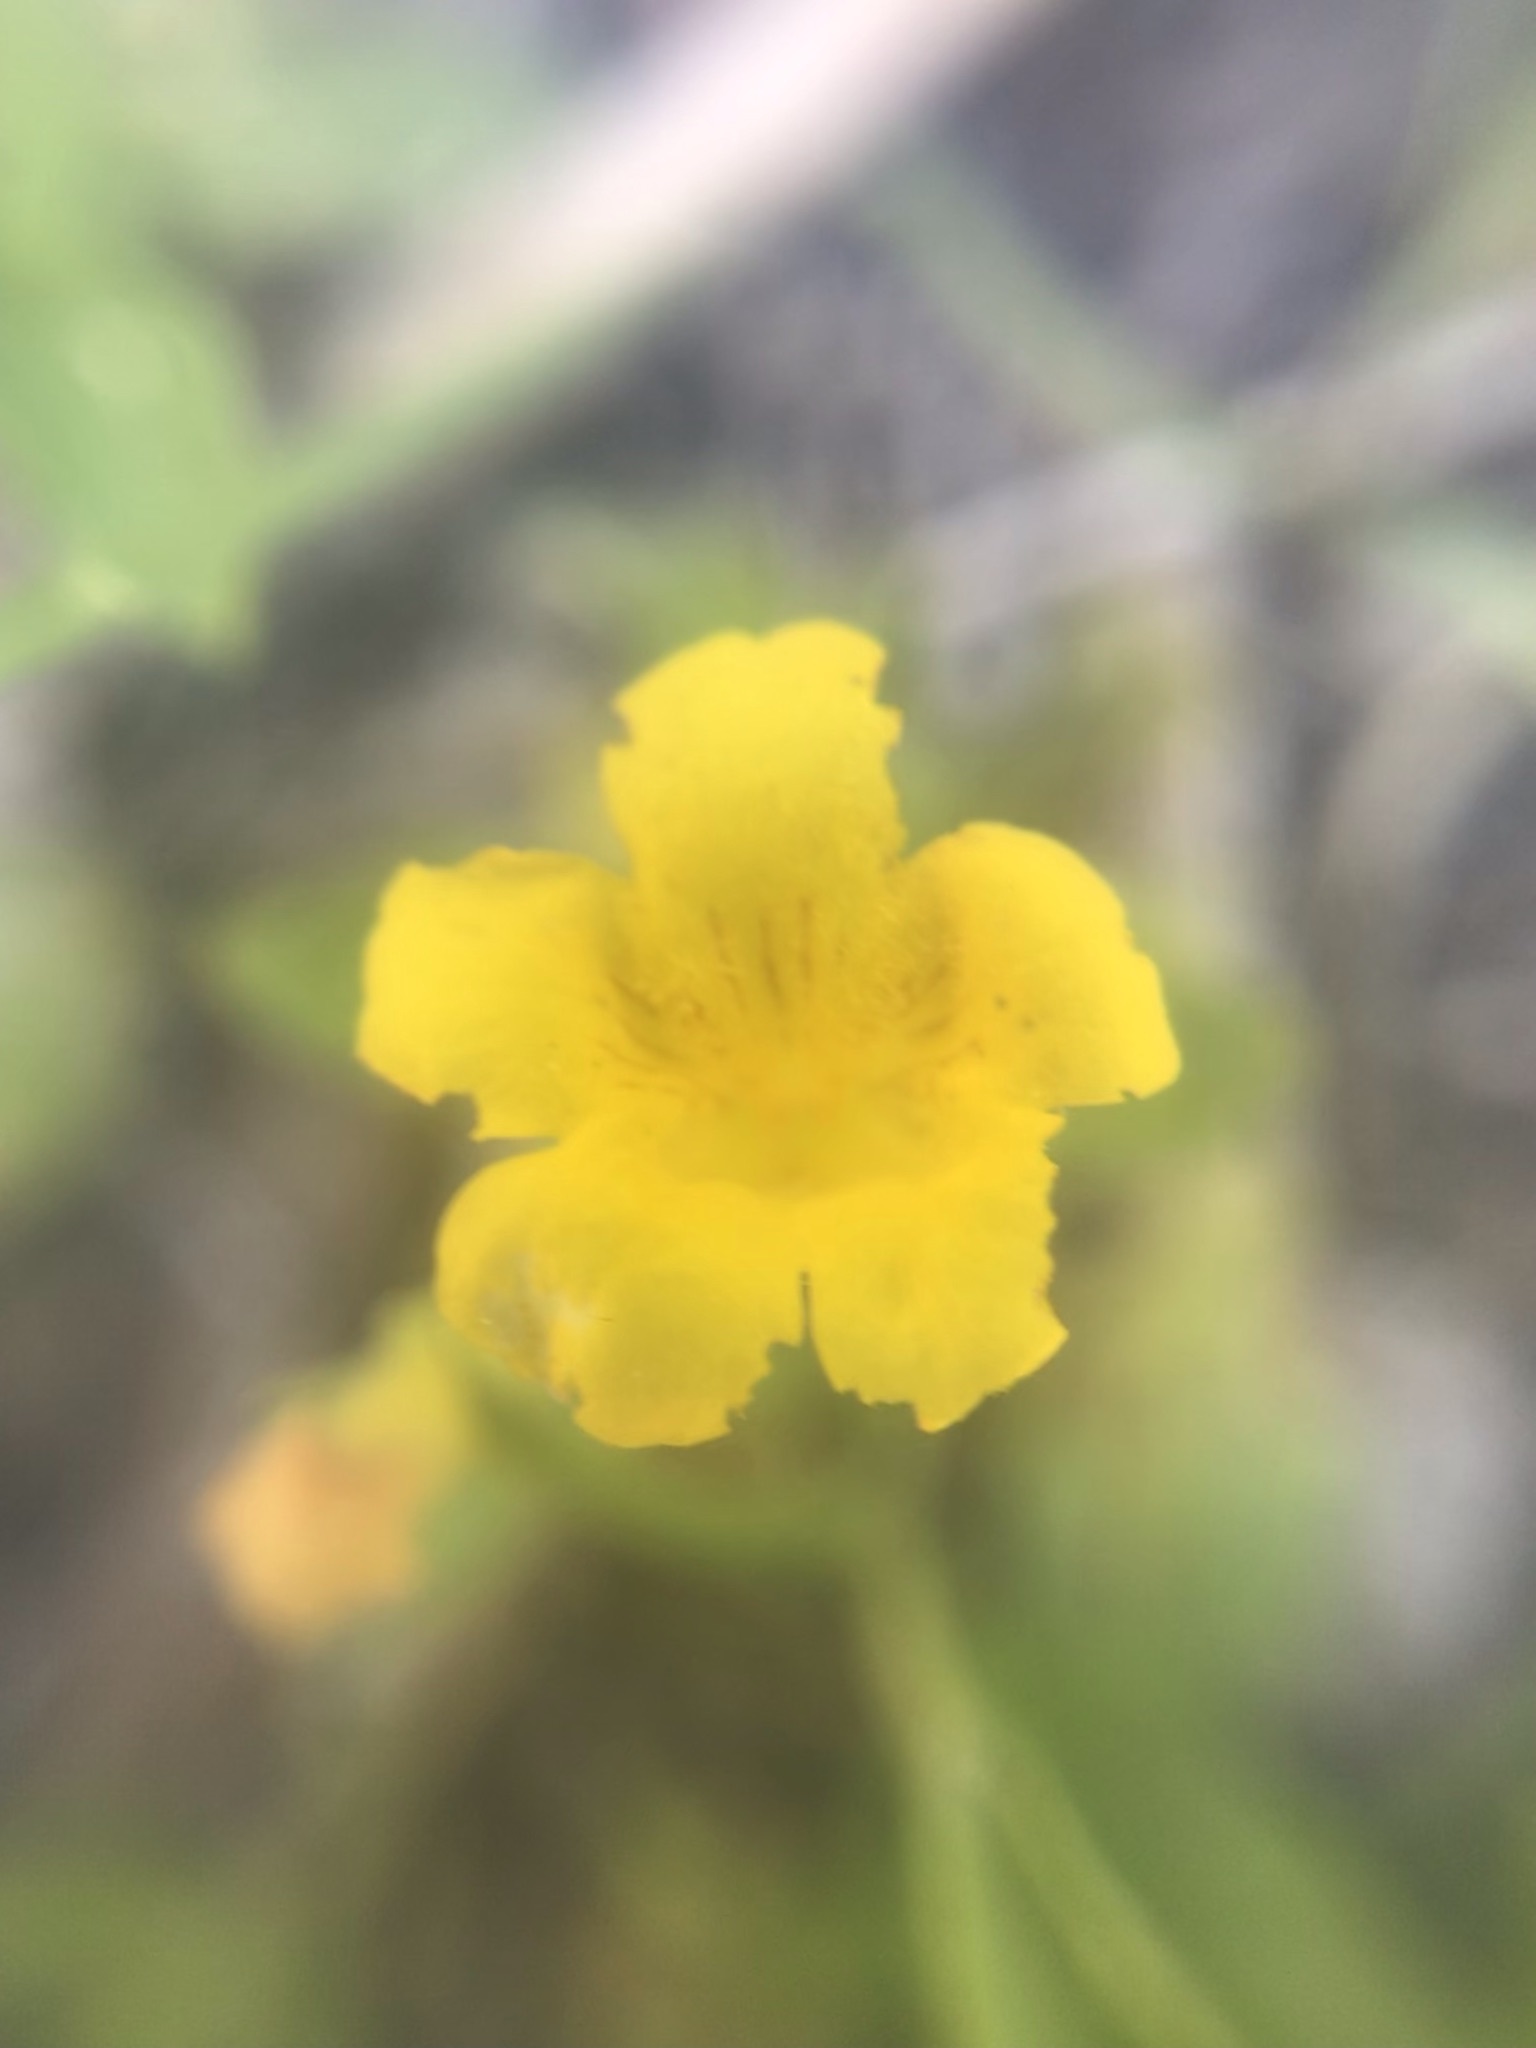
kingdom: Plantae
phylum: Tracheophyta
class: Magnoliopsida
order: Lamiales
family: Phrymaceae
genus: Erythranthe
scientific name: Erythranthe moschata
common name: Muskflower
